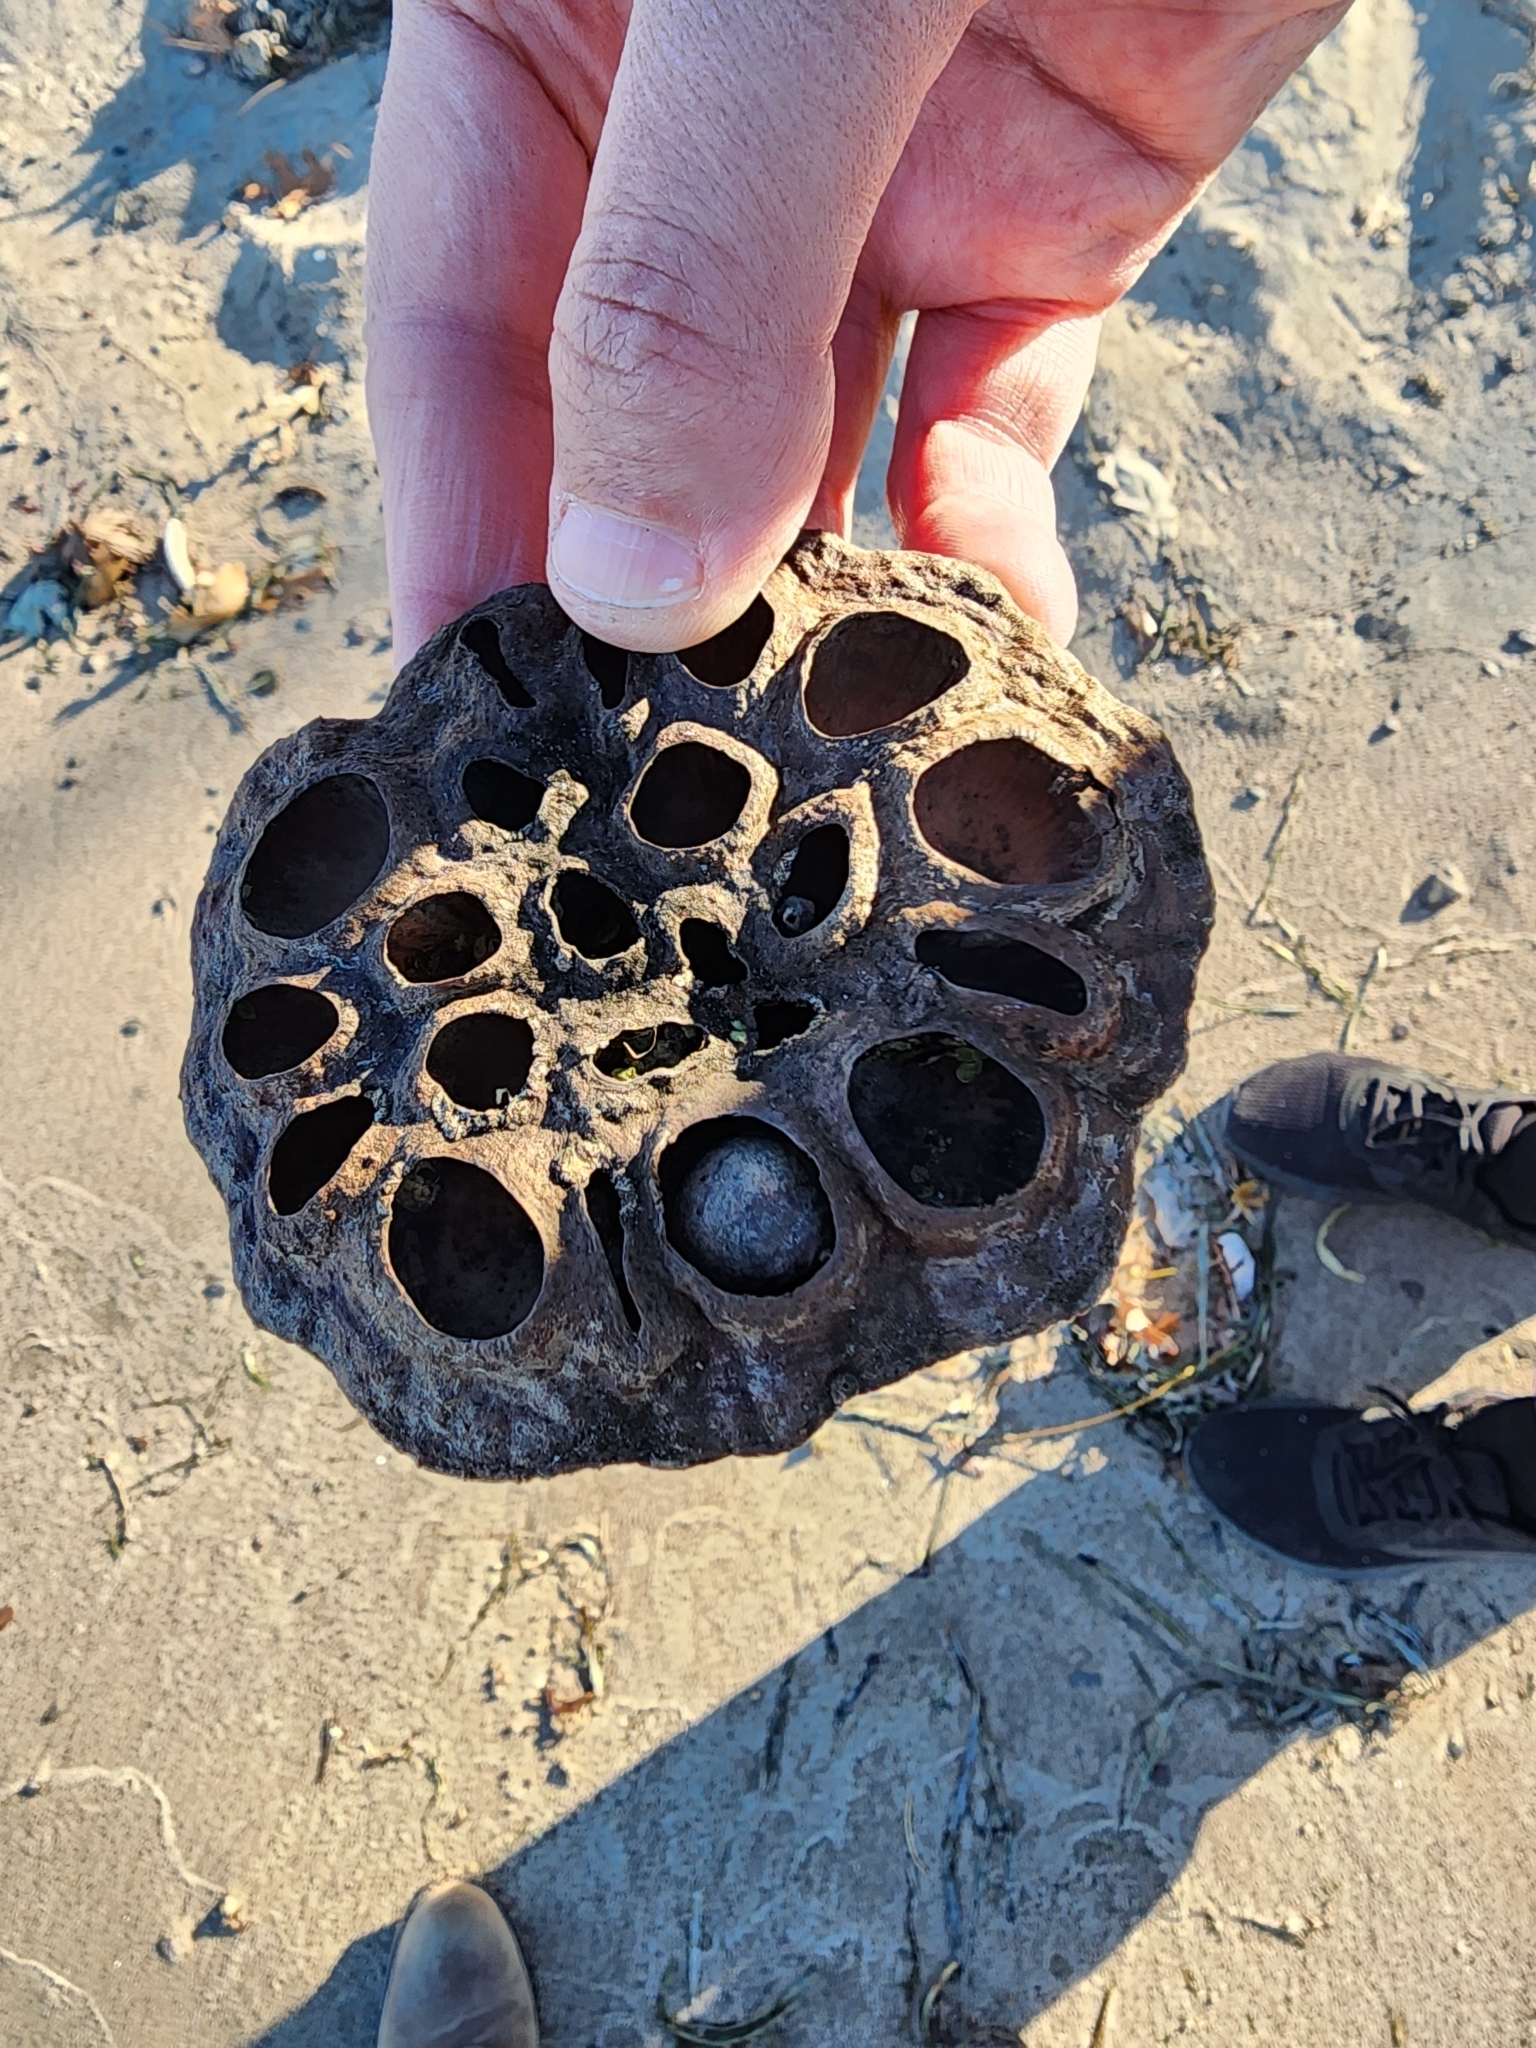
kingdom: Plantae
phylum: Tracheophyta
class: Magnoliopsida
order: Proteales
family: Nelumbonaceae
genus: Nelumbo
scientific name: Nelumbo lutea
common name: American lotus
